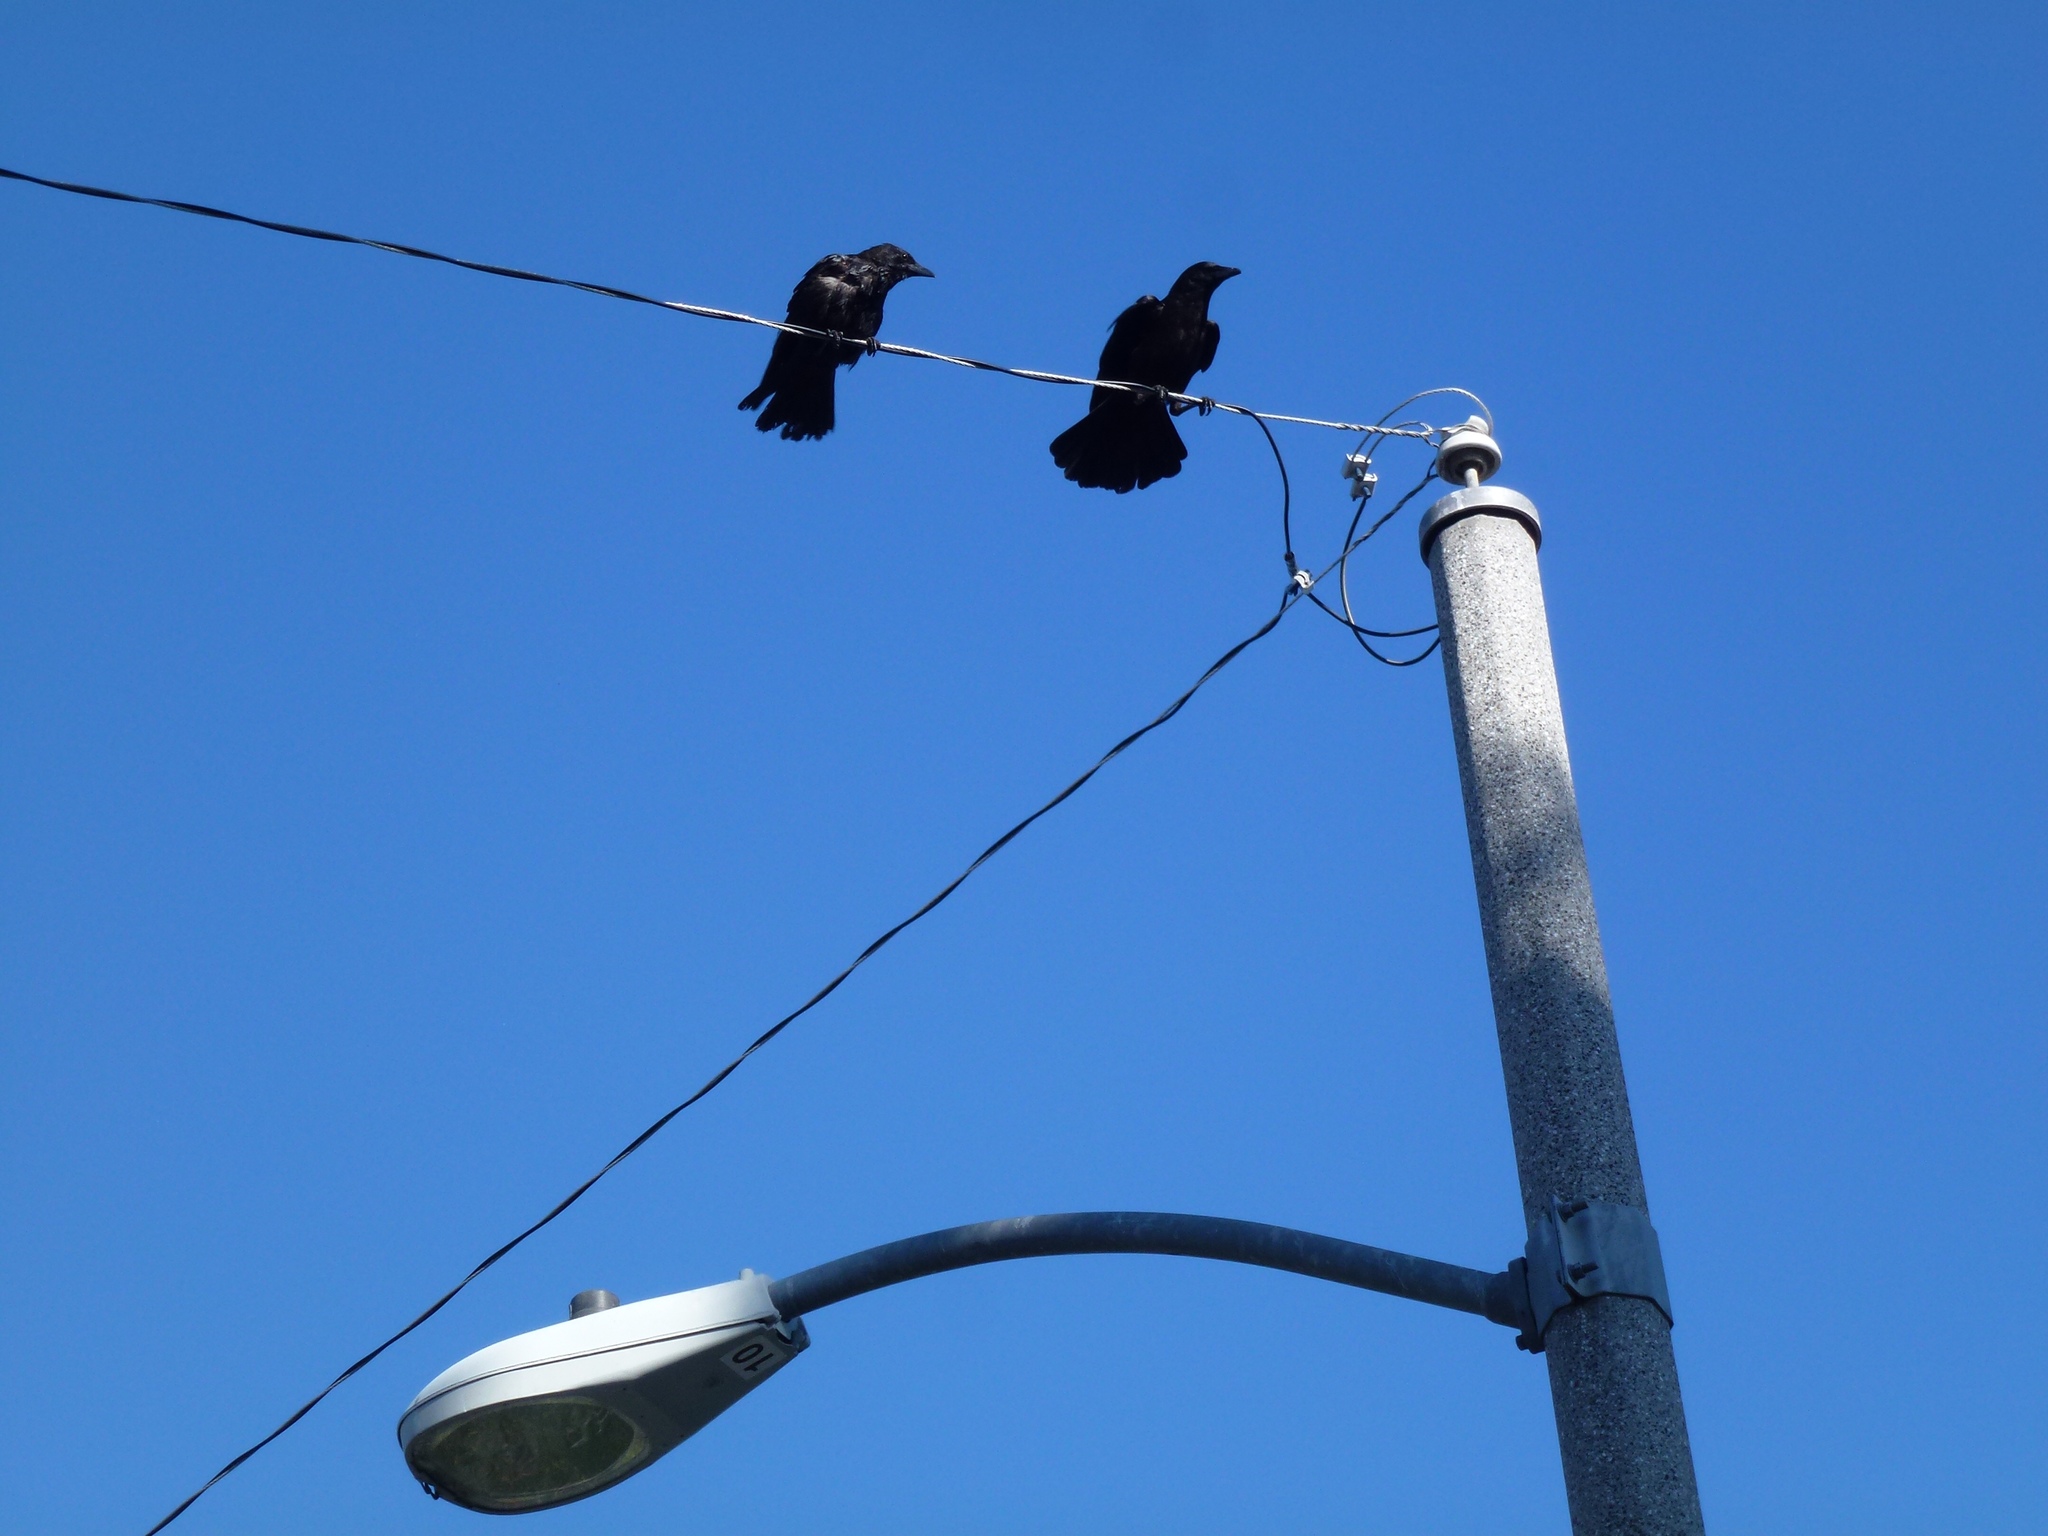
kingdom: Animalia
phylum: Chordata
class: Aves
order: Passeriformes
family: Corvidae
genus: Corvus
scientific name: Corvus brachyrhynchos
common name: American crow
